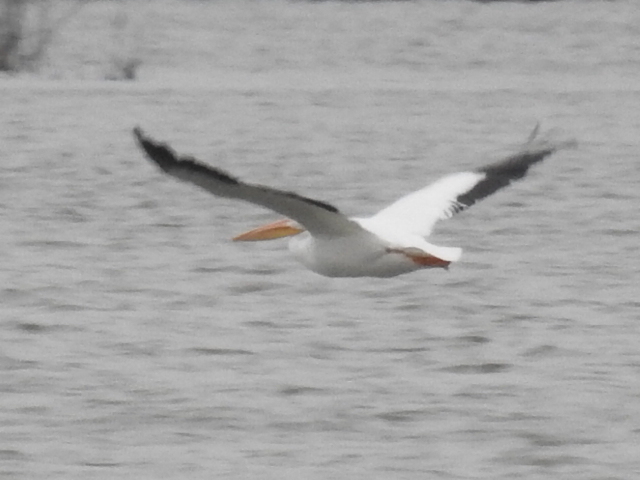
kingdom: Animalia
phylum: Chordata
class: Aves
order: Pelecaniformes
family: Pelecanidae
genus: Pelecanus
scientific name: Pelecanus erythrorhynchos
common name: American white pelican
